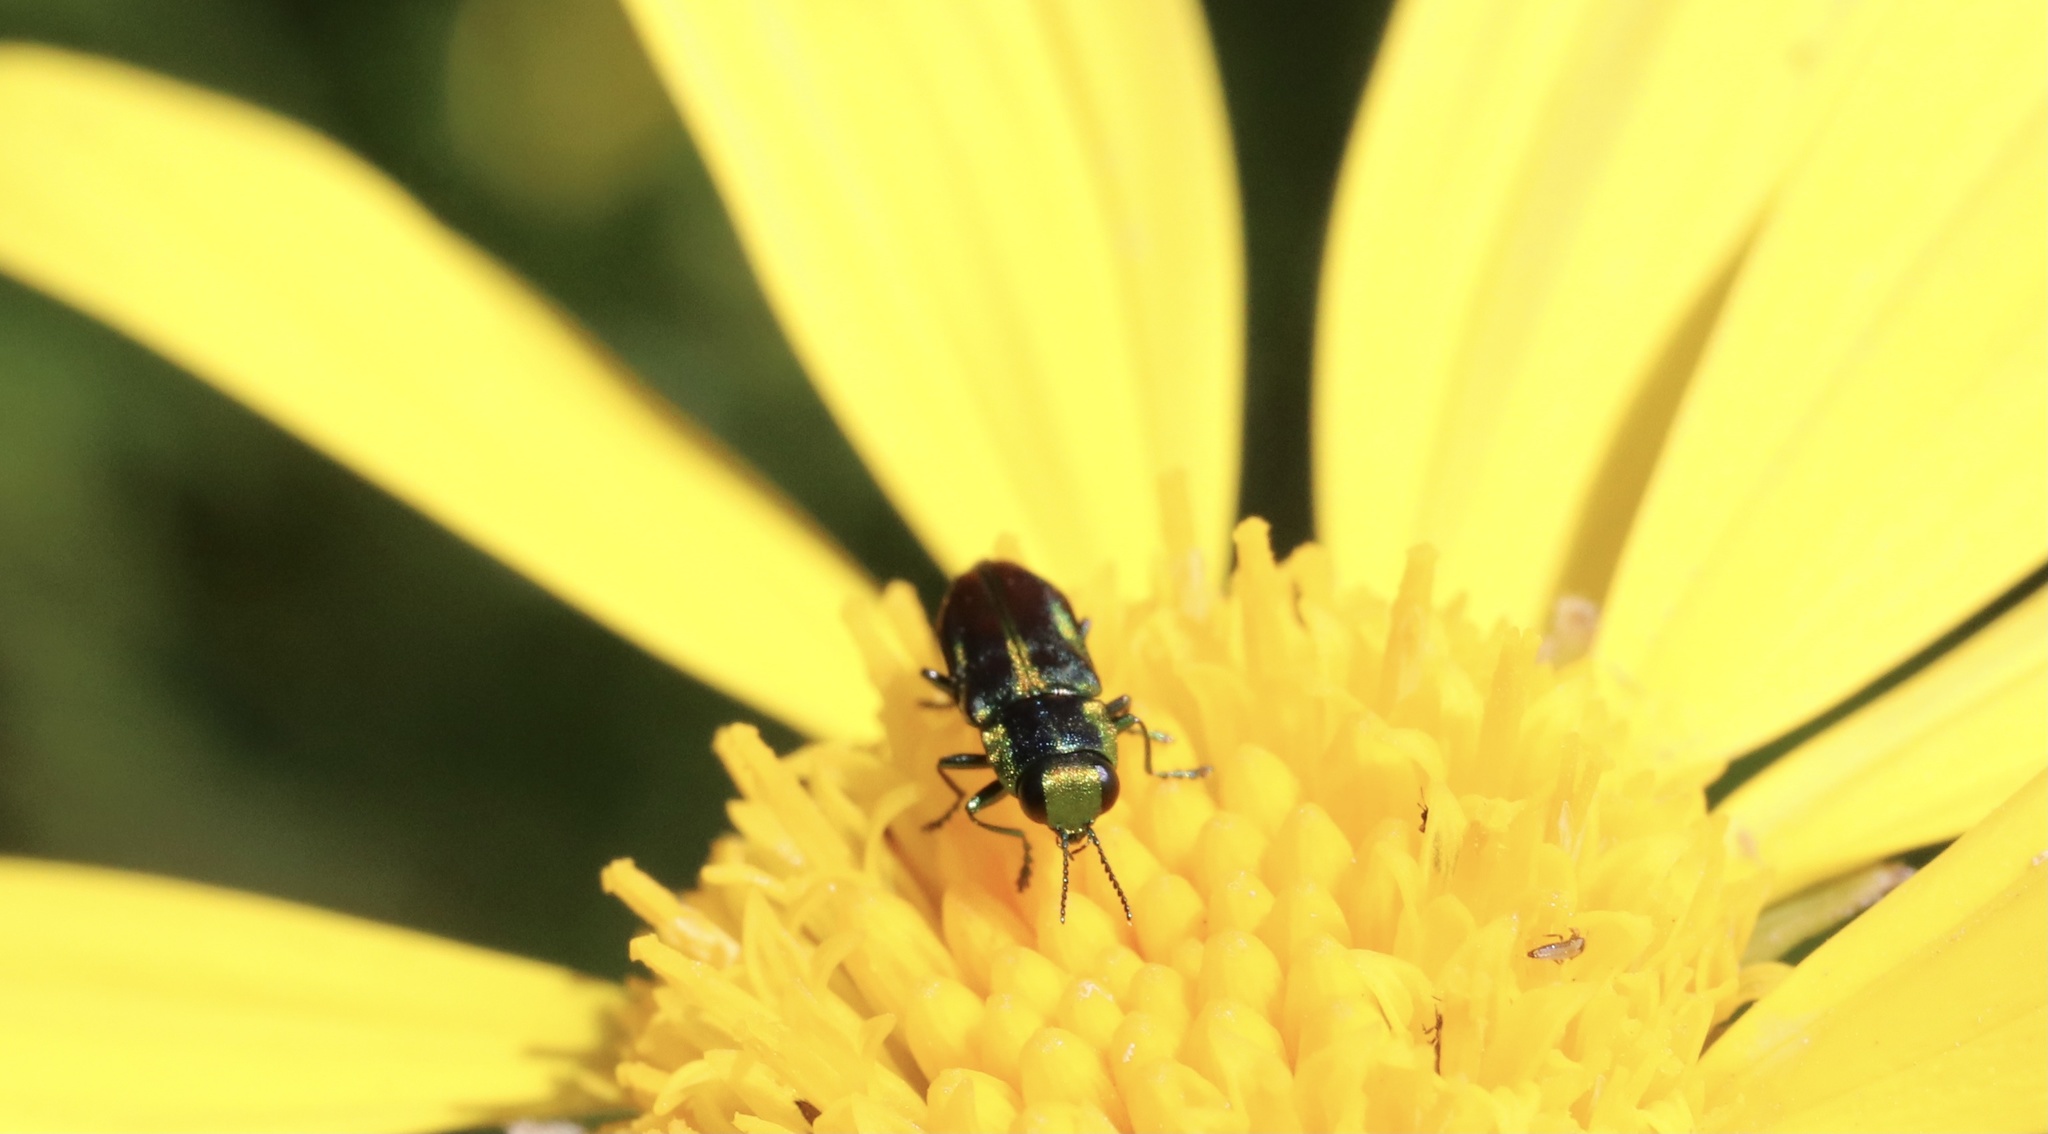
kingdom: Animalia
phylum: Arthropoda
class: Insecta
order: Coleoptera
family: Buprestidae
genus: Bilyaxia
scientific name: Bilyaxia concinna
